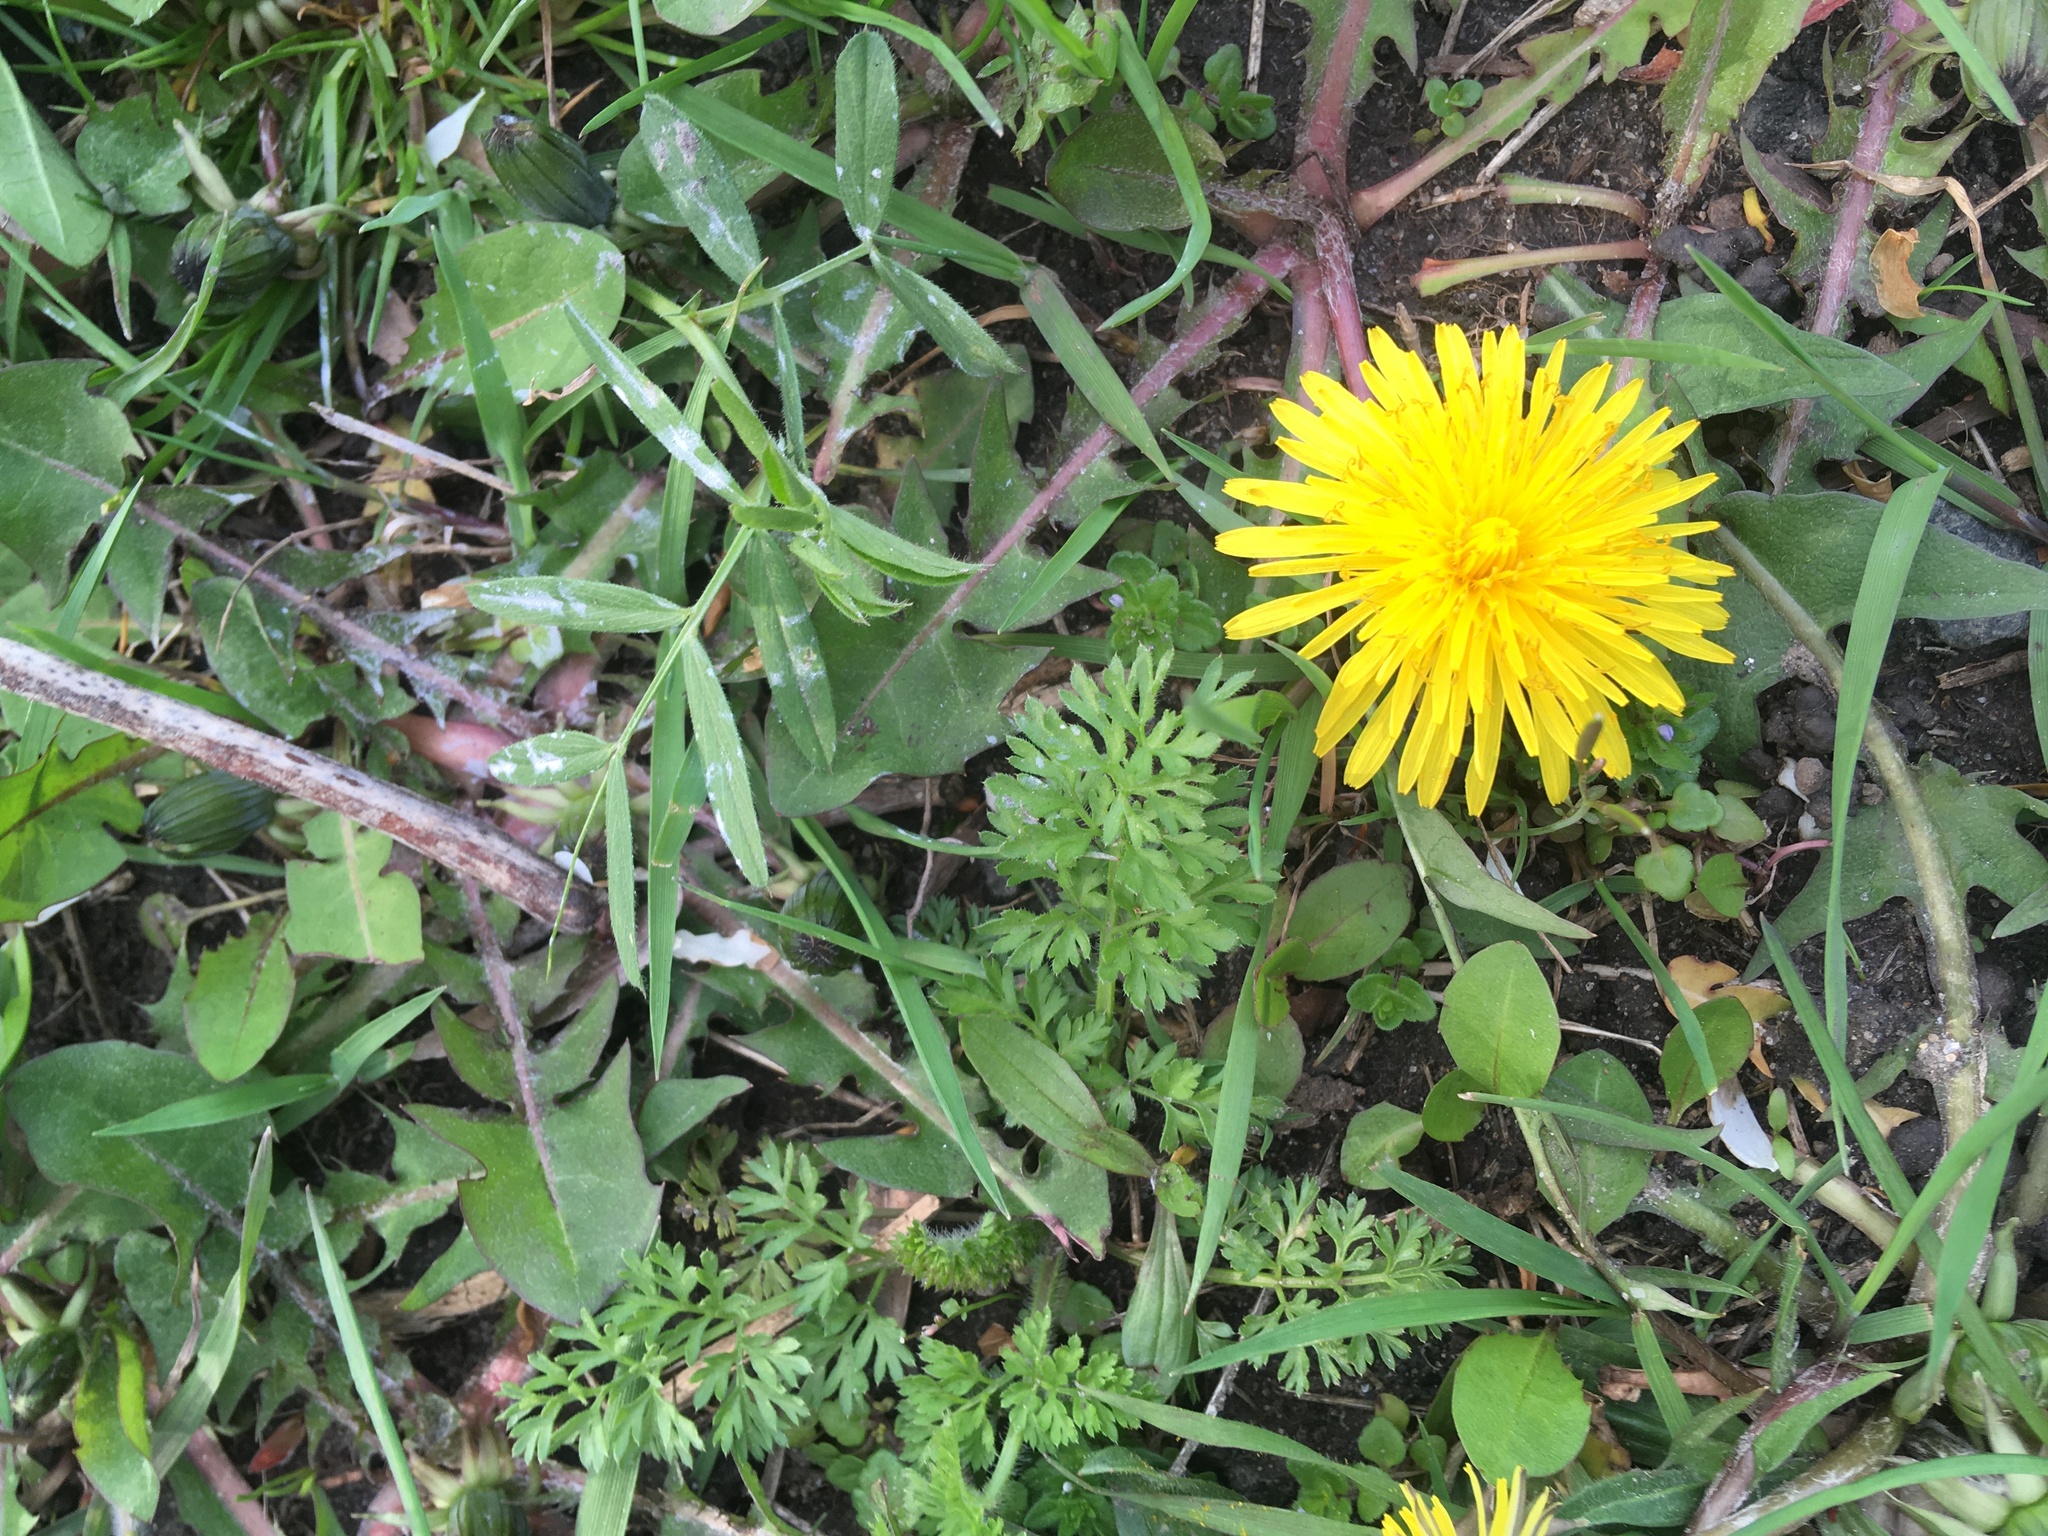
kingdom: Plantae
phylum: Tracheophyta
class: Magnoliopsida
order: Asterales
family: Asteraceae
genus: Taraxacum
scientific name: Taraxacum officinale
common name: Common dandelion
